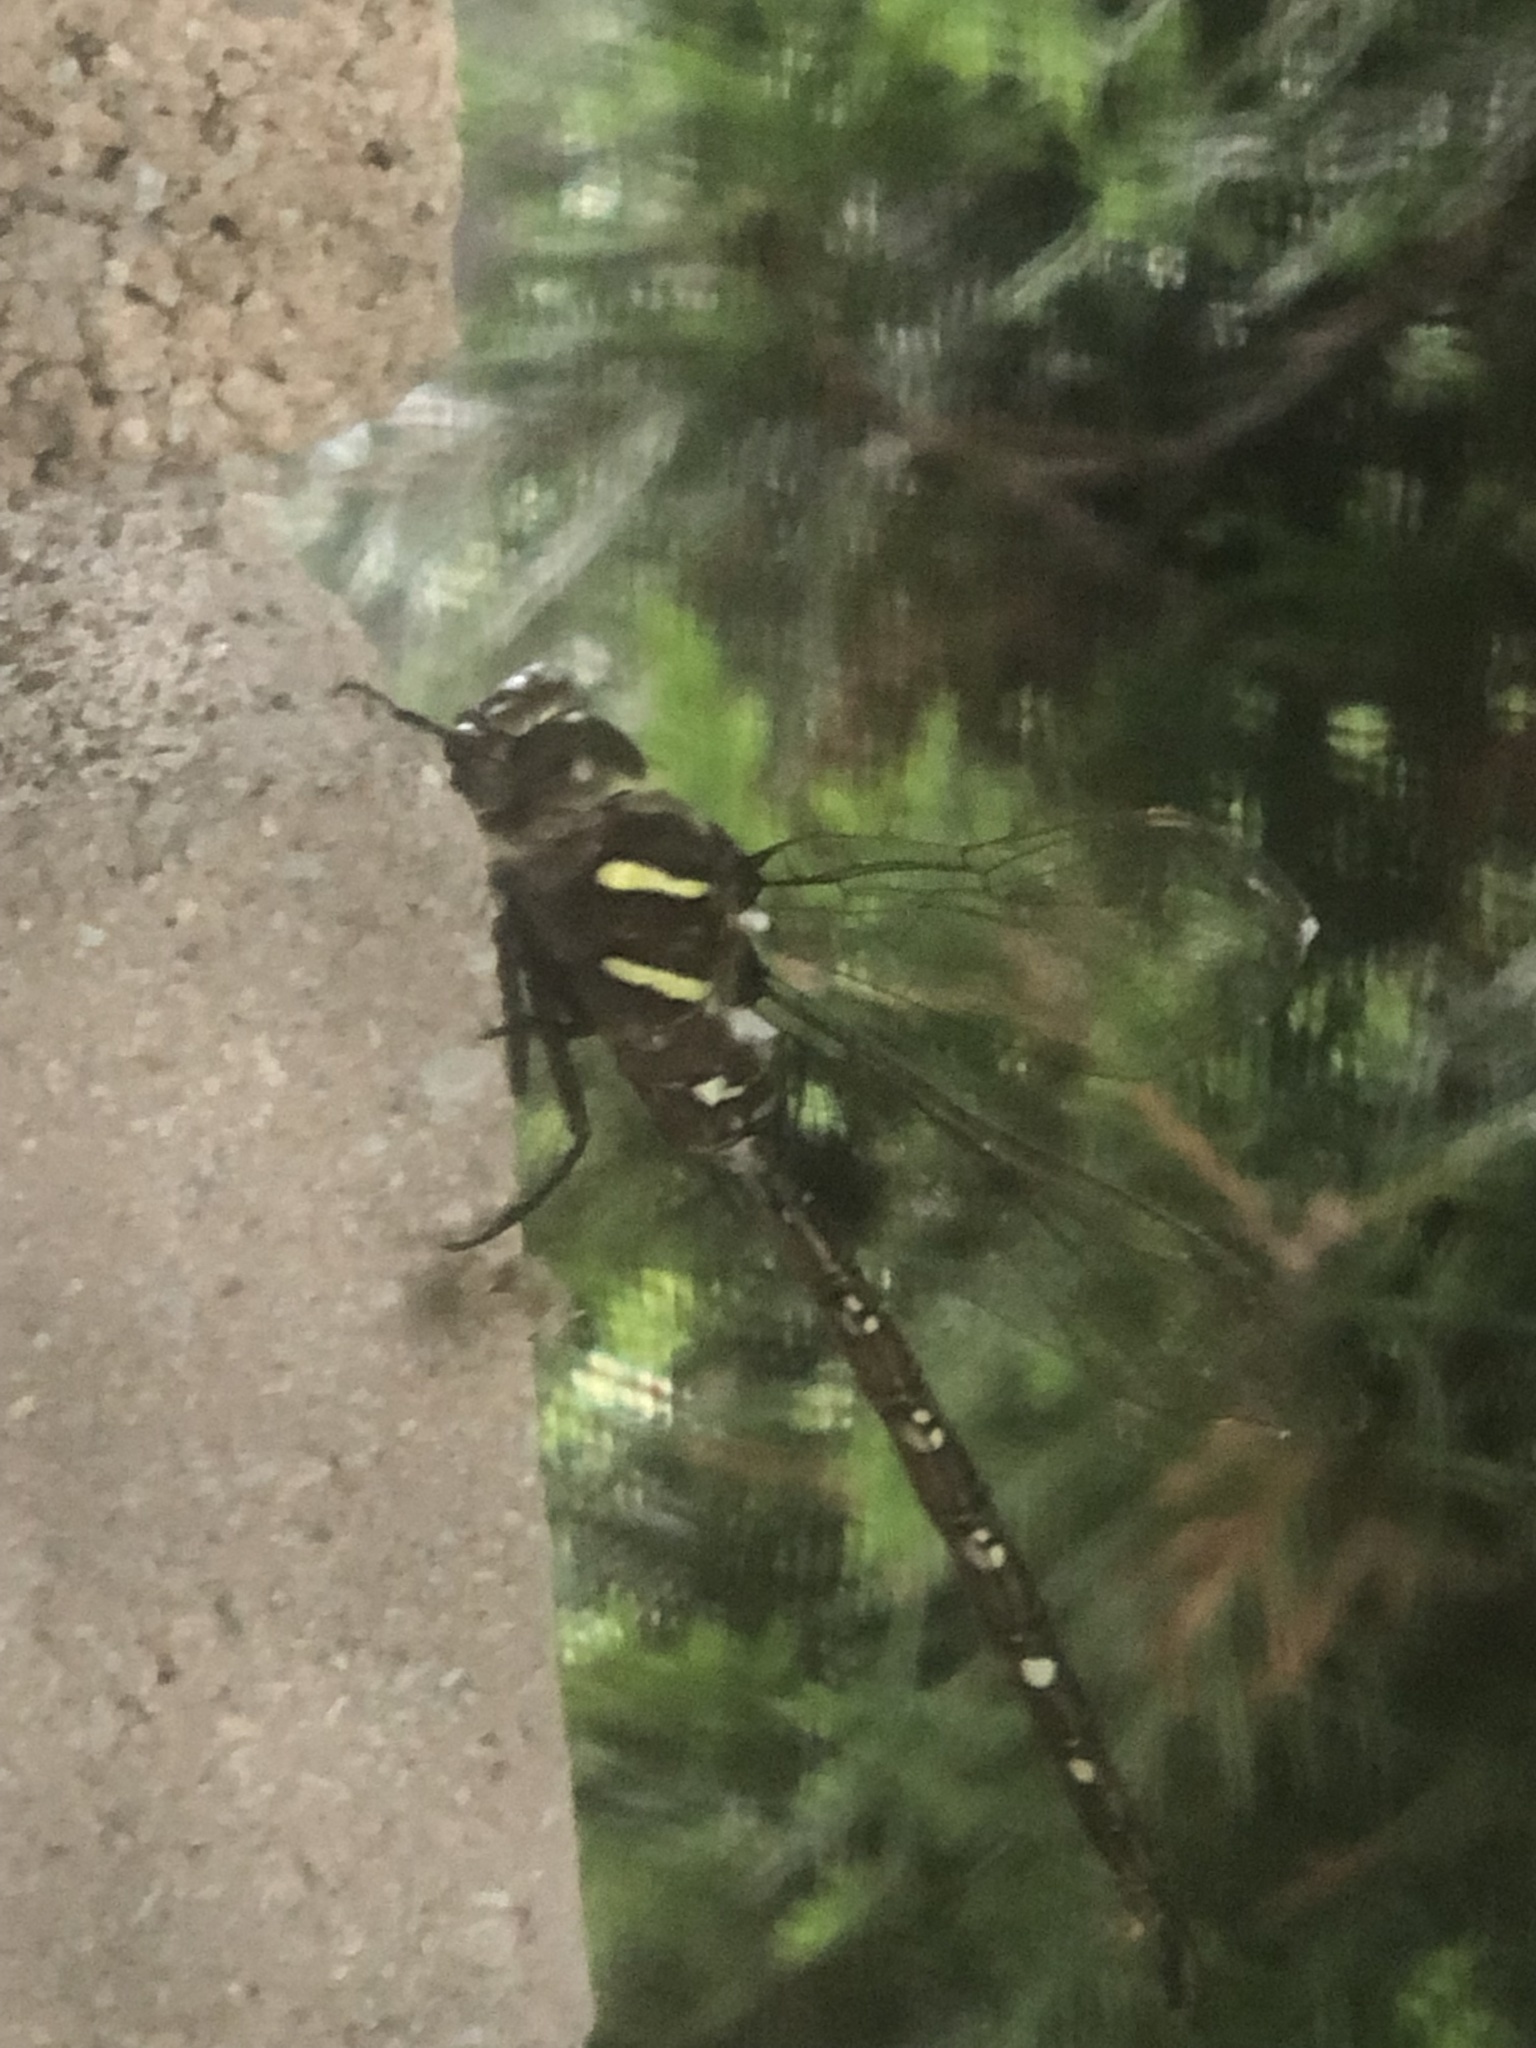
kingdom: Animalia
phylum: Arthropoda
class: Insecta
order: Odonata
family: Aeshnidae
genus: Aeshna
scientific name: Aeshna umbrosa
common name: Shadow darner
